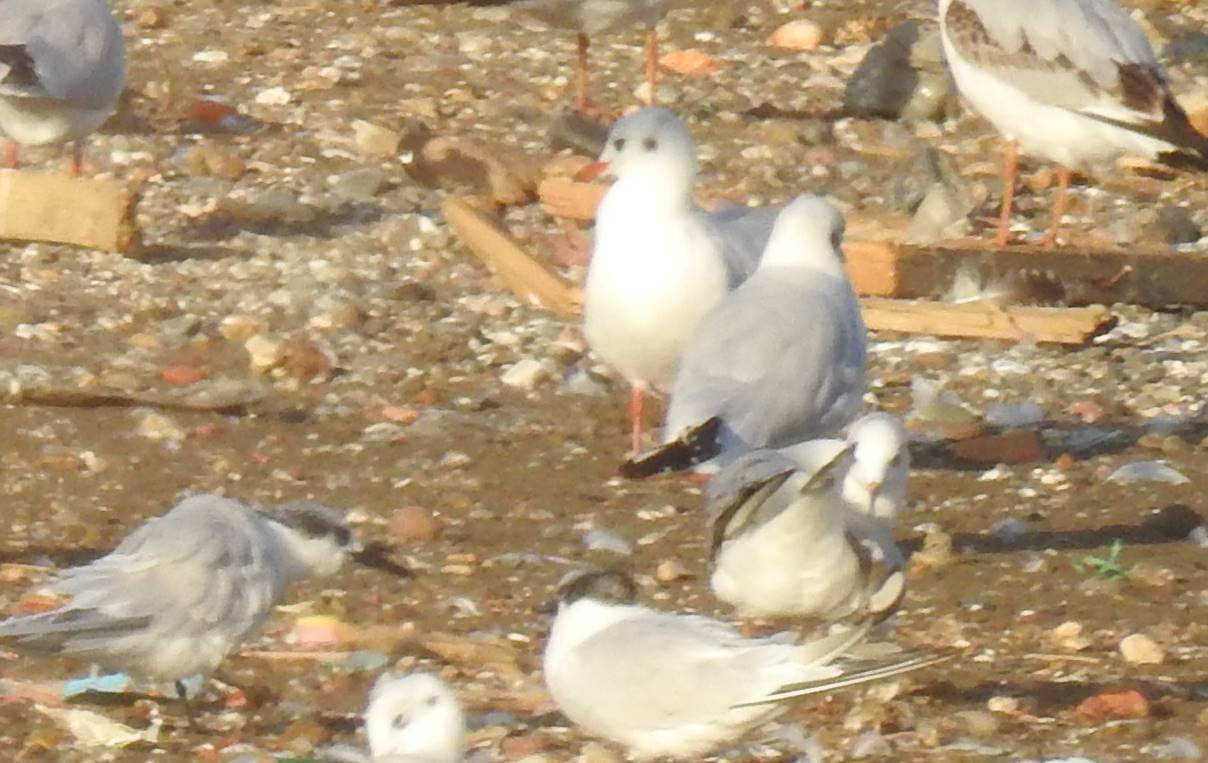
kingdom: Animalia
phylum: Chordata
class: Aves
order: Charadriiformes
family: Laridae
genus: Chroicocephalus
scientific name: Chroicocephalus ridibundus
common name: Black-headed gull
